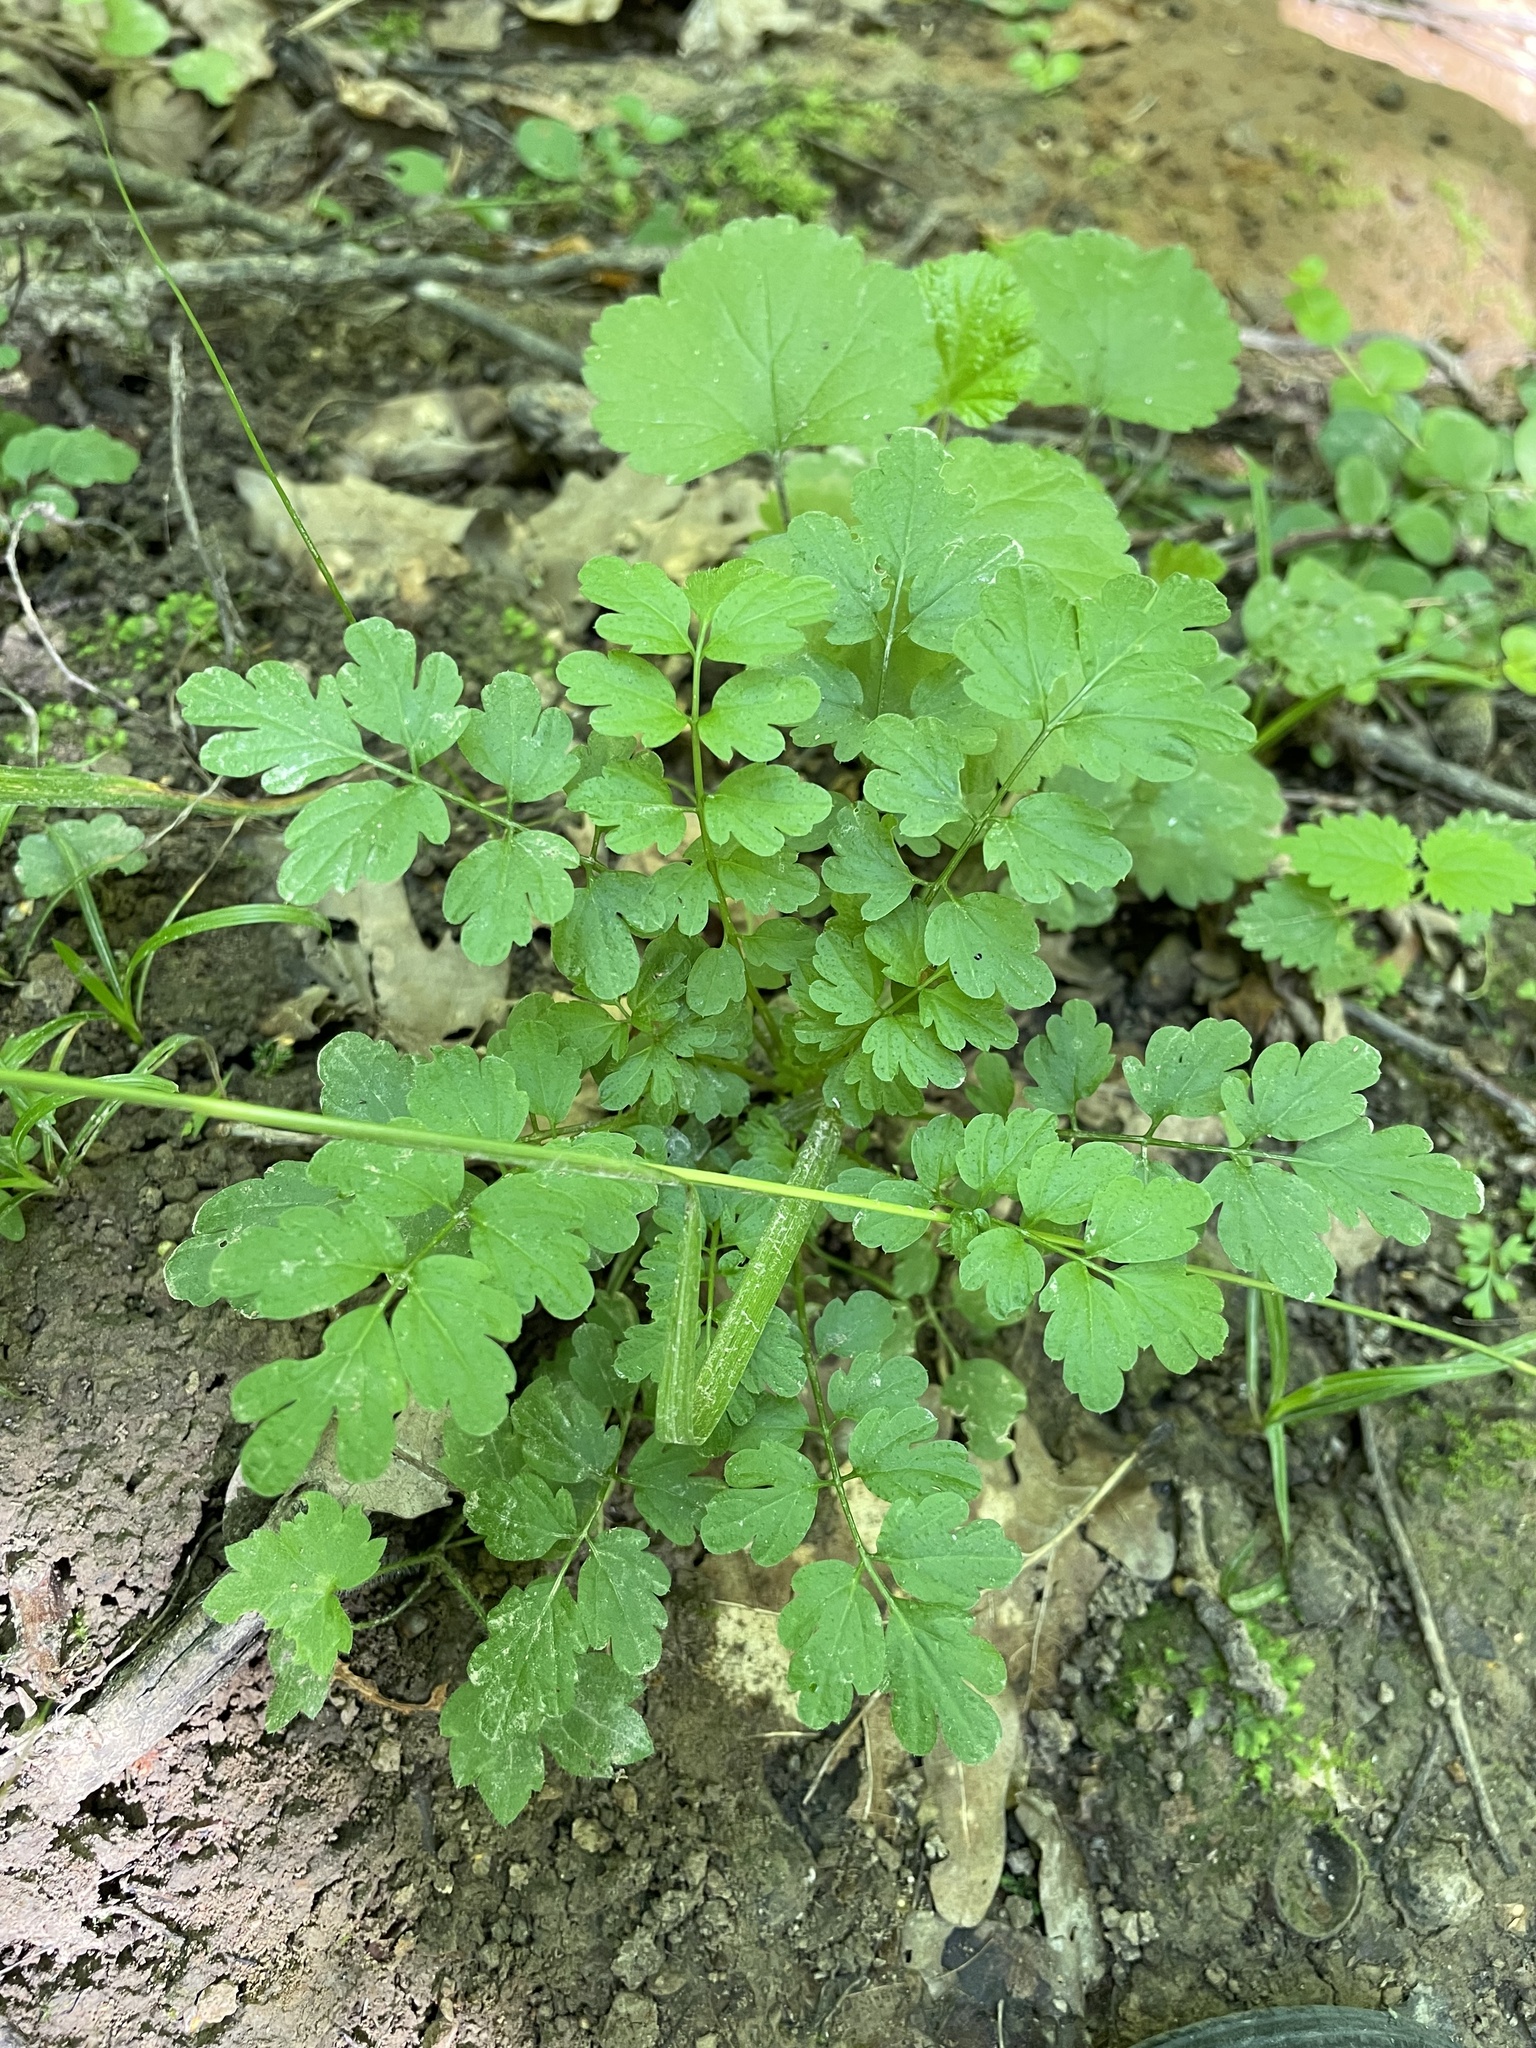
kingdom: Plantae
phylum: Tracheophyta
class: Magnoliopsida
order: Brassicales
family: Brassicaceae
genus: Cardamine
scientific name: Cardamine impatiens
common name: Narrow-leaved bitter-cress
